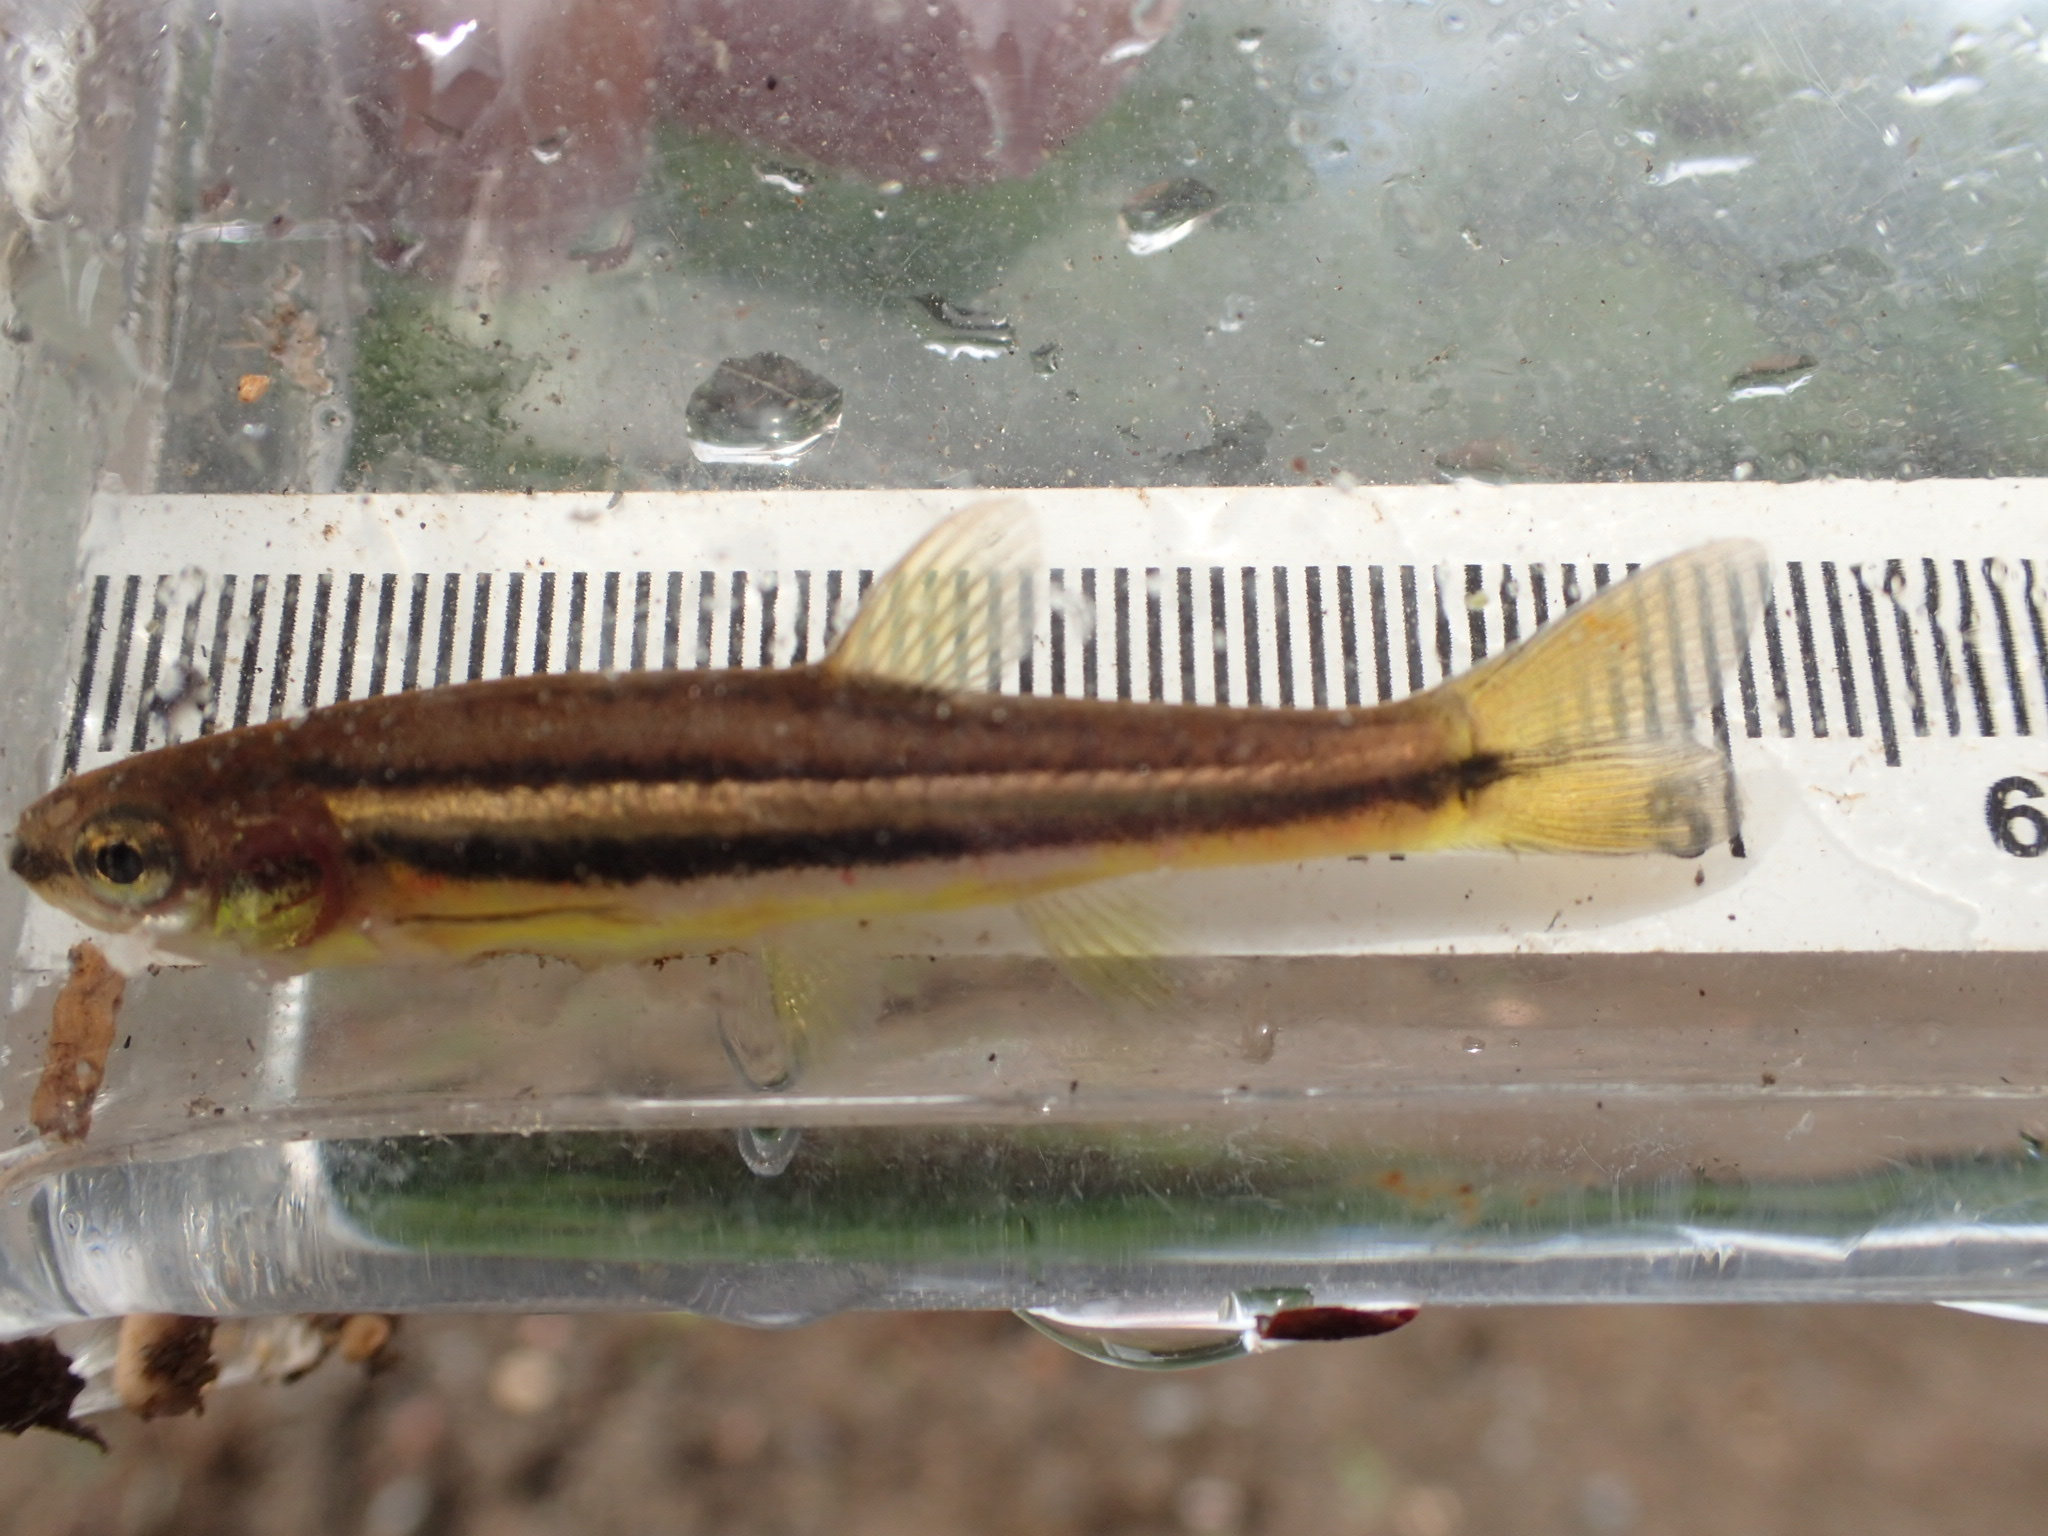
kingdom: Animalia
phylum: Chordata
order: Cypriniformes
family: Cyprinidae
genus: Chrosomus
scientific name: Chrosomus eos
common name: Northern redbelly dace
